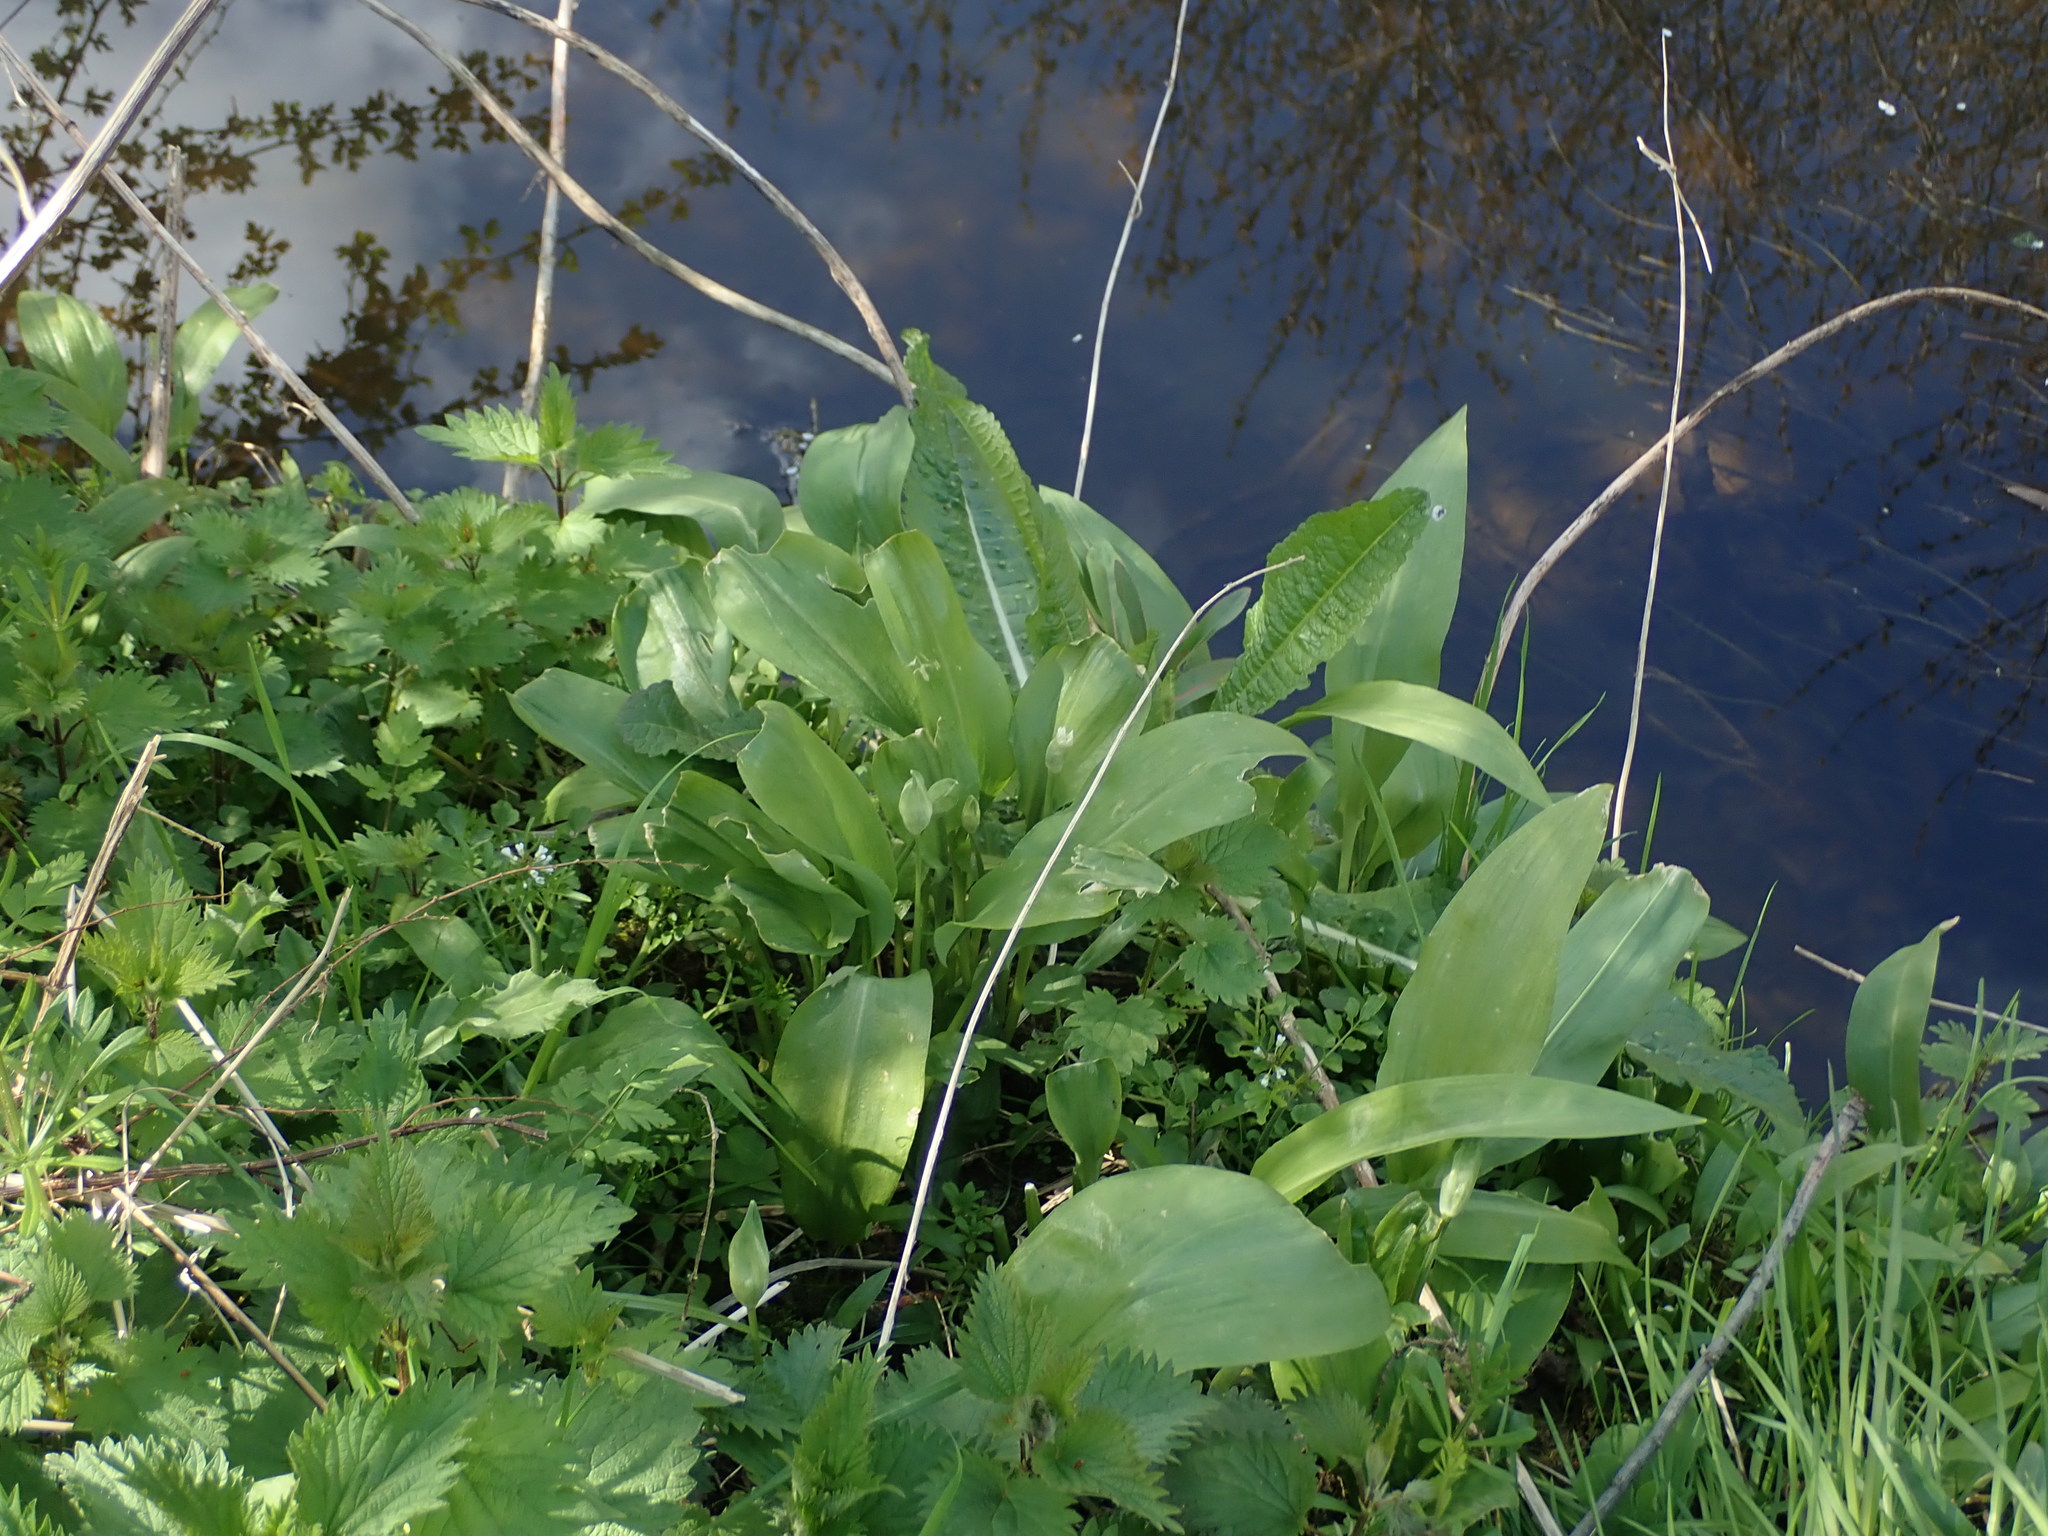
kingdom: Plantae
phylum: Tracheophyta
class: Liliopsida
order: Asparagales
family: Amaryllidaceae
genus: Allium
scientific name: Allium ursinum
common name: Ramsons
